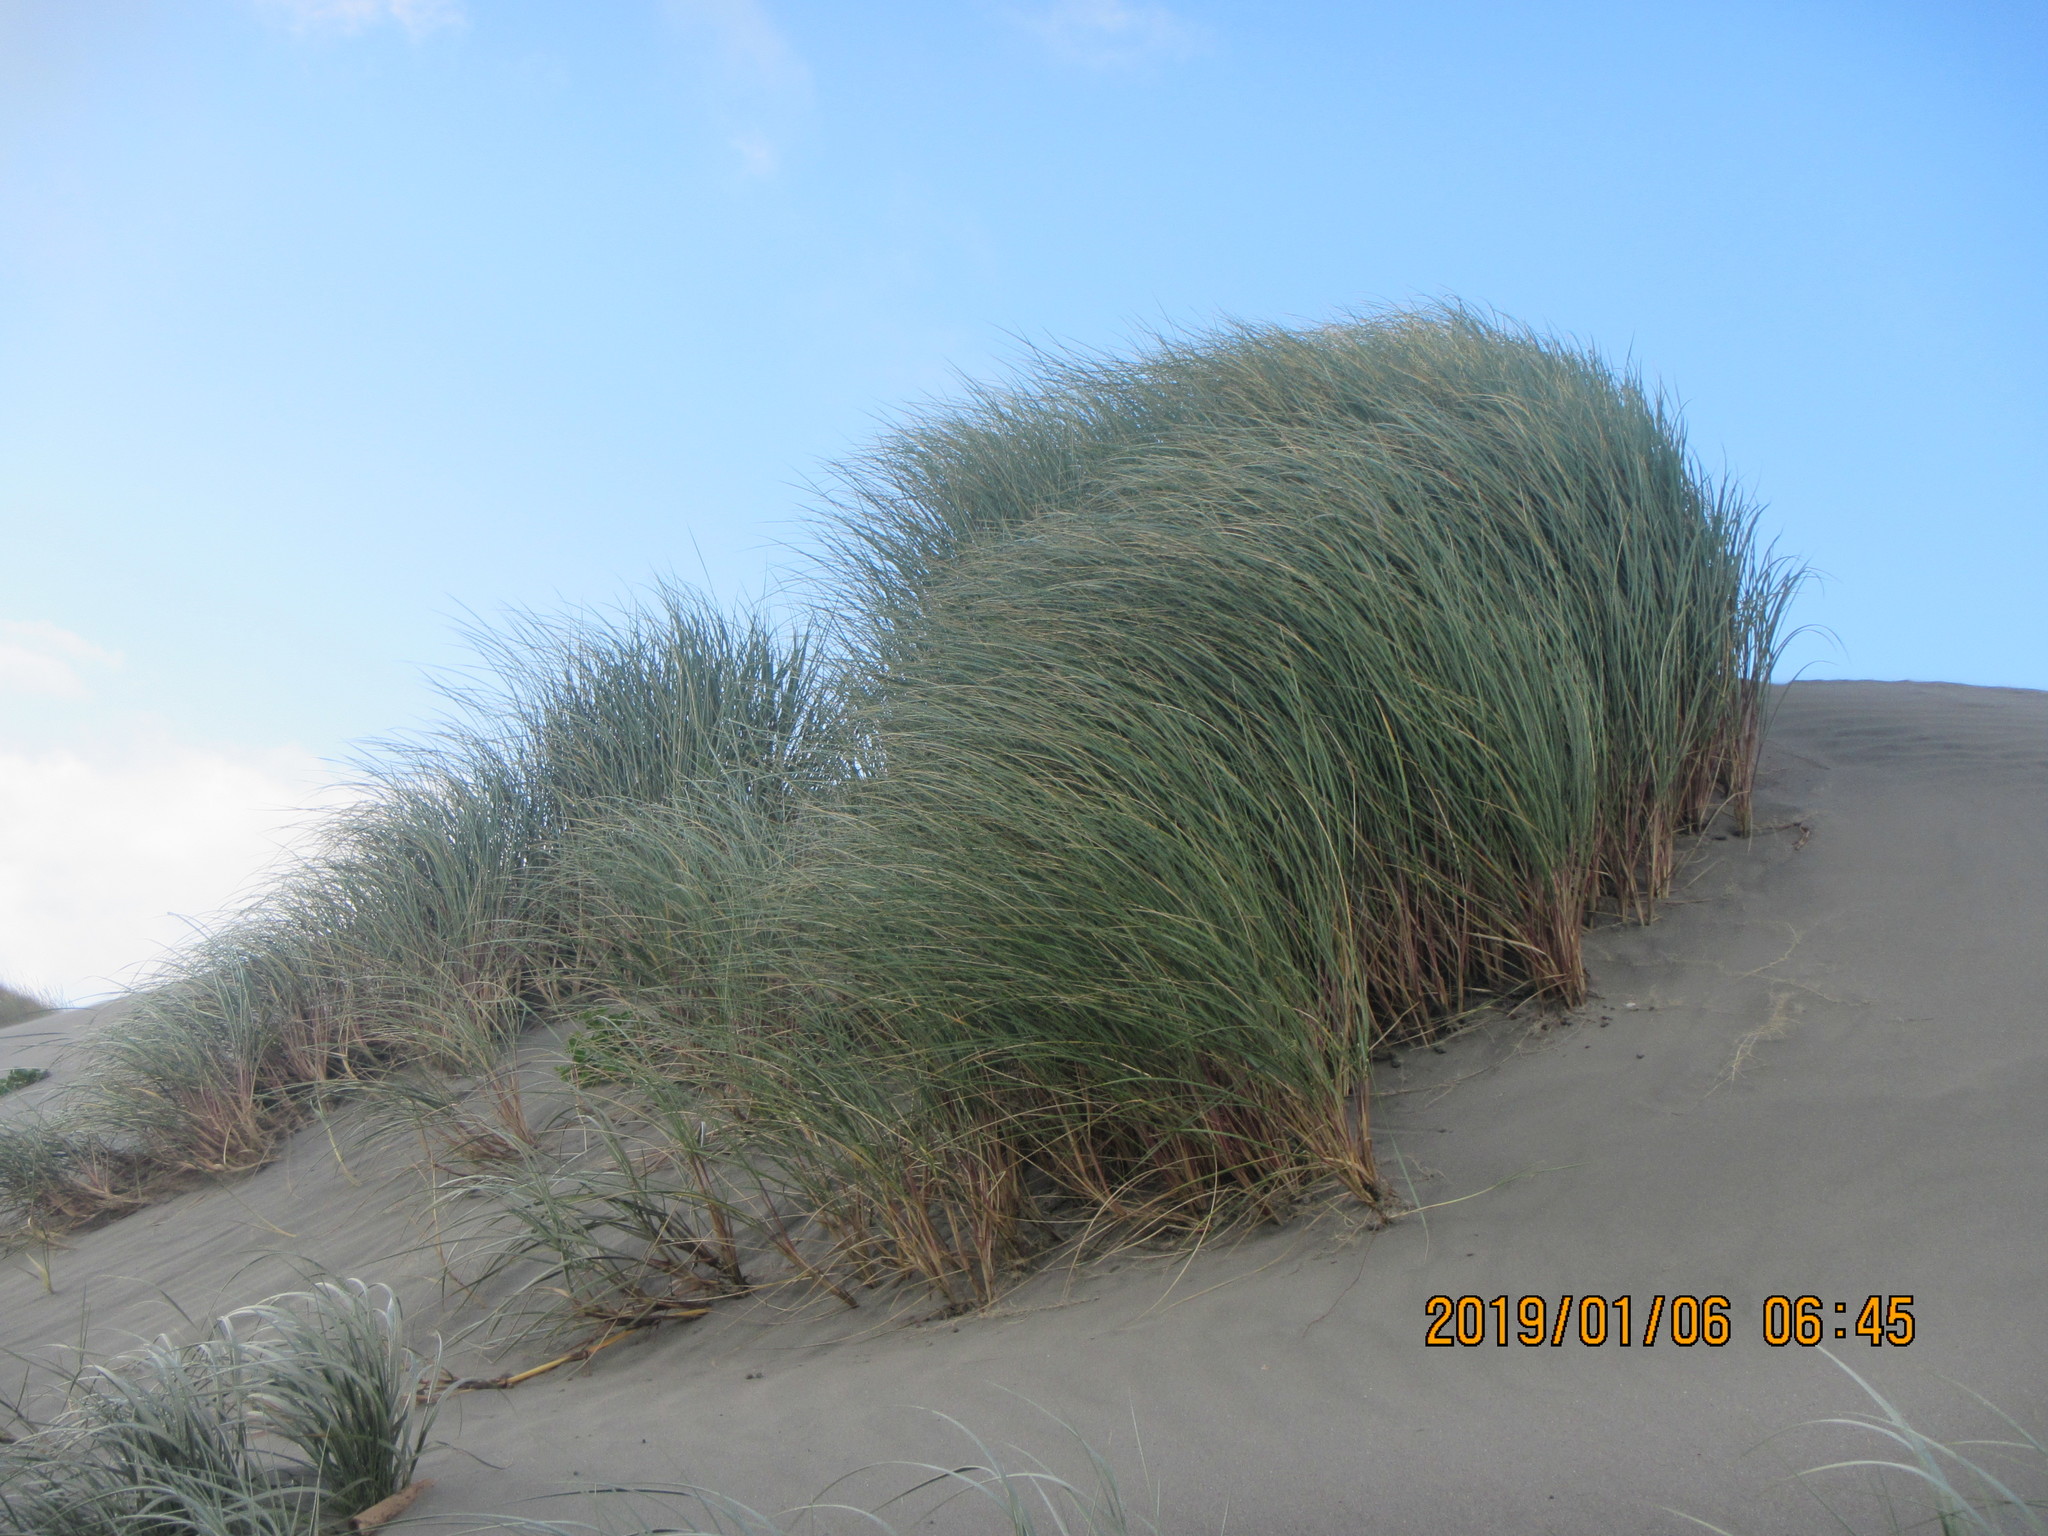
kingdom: Plantae
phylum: Tracheophyta
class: Liliopsida
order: Poales
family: Poaceae
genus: Calamagrostis
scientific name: Calamagrostis arenaria
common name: European beachgrass
